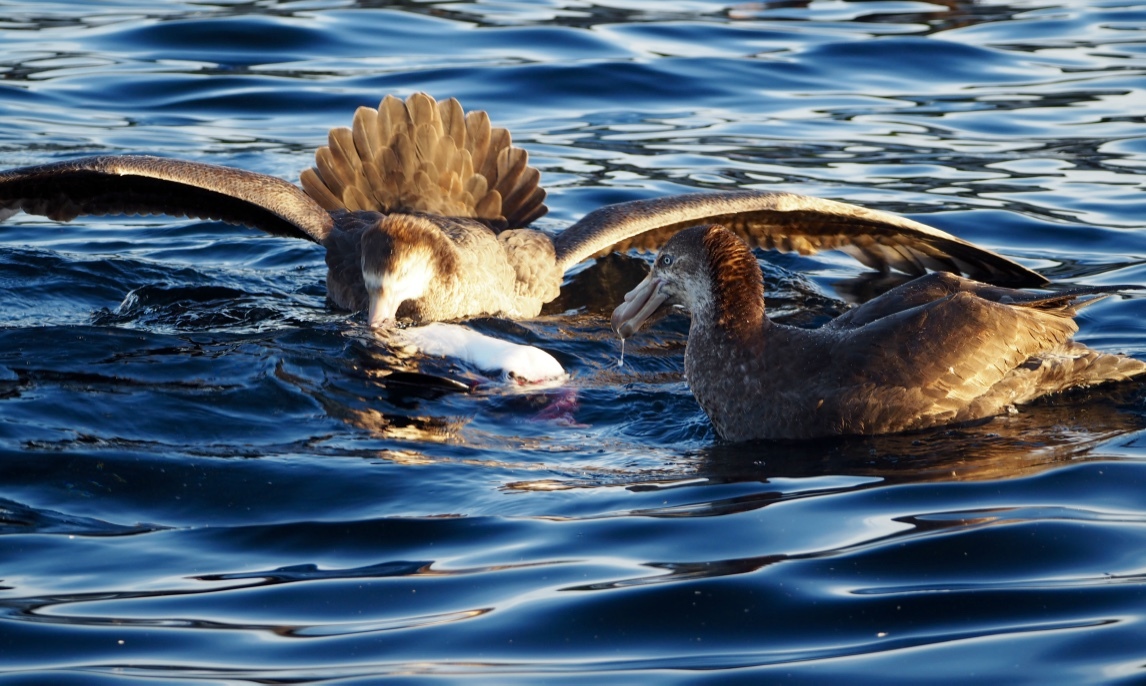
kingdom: Animalia
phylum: Chordata
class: Aves
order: Procellariiformes
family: Procellariidae
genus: Macronectes
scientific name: Macronectes halli
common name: Northern giant petrel
